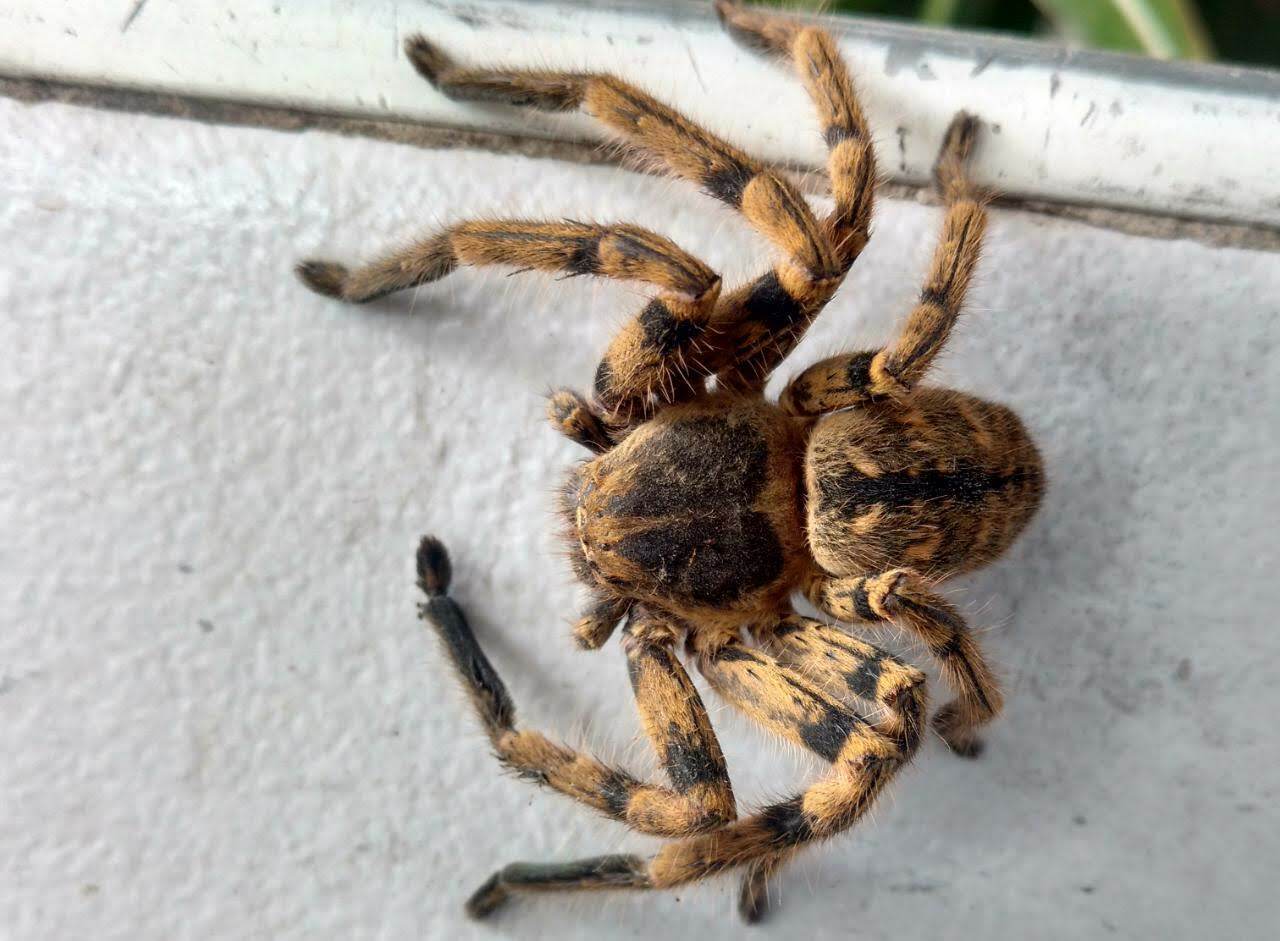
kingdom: Animalia
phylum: Arthropoda
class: Arachnida
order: Araneae
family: Sparassidae
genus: Polybetes
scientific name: Polybetes pythagoricus
